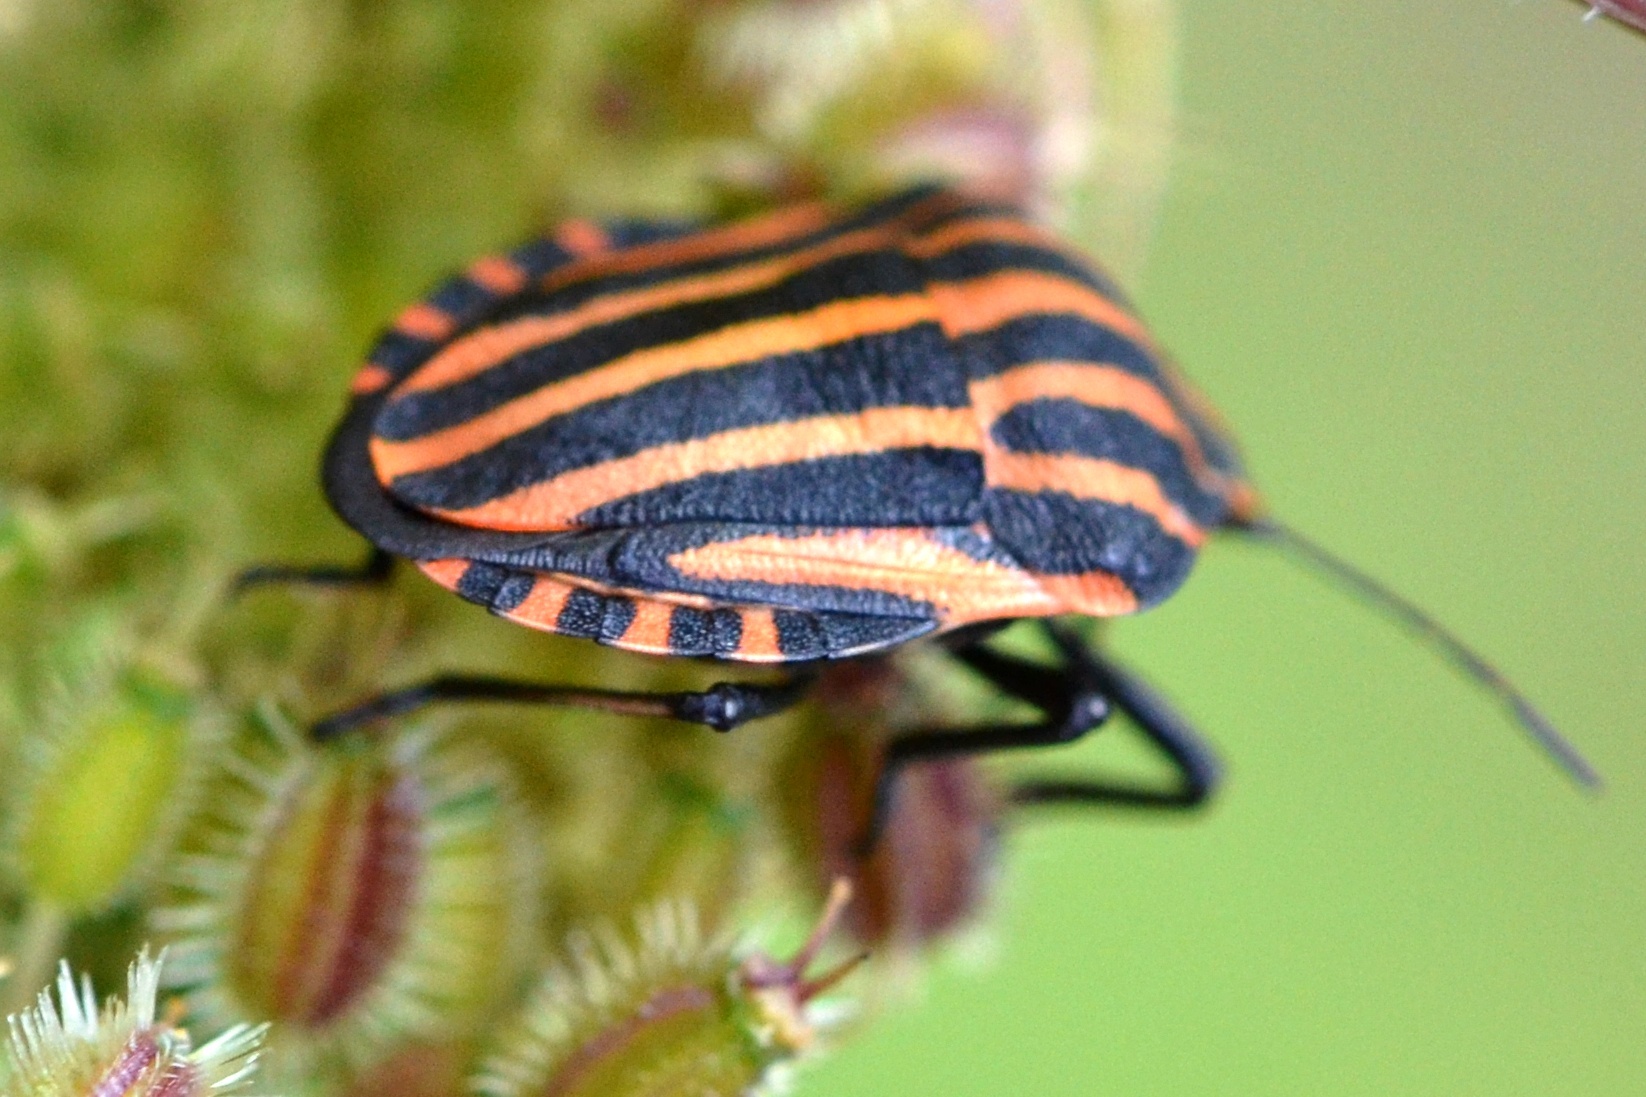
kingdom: Animalia
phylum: Arthropoda
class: Insecta
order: Hemiptera
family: Pentatomidae
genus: Graphosoma
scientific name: Graphosoma italicum
